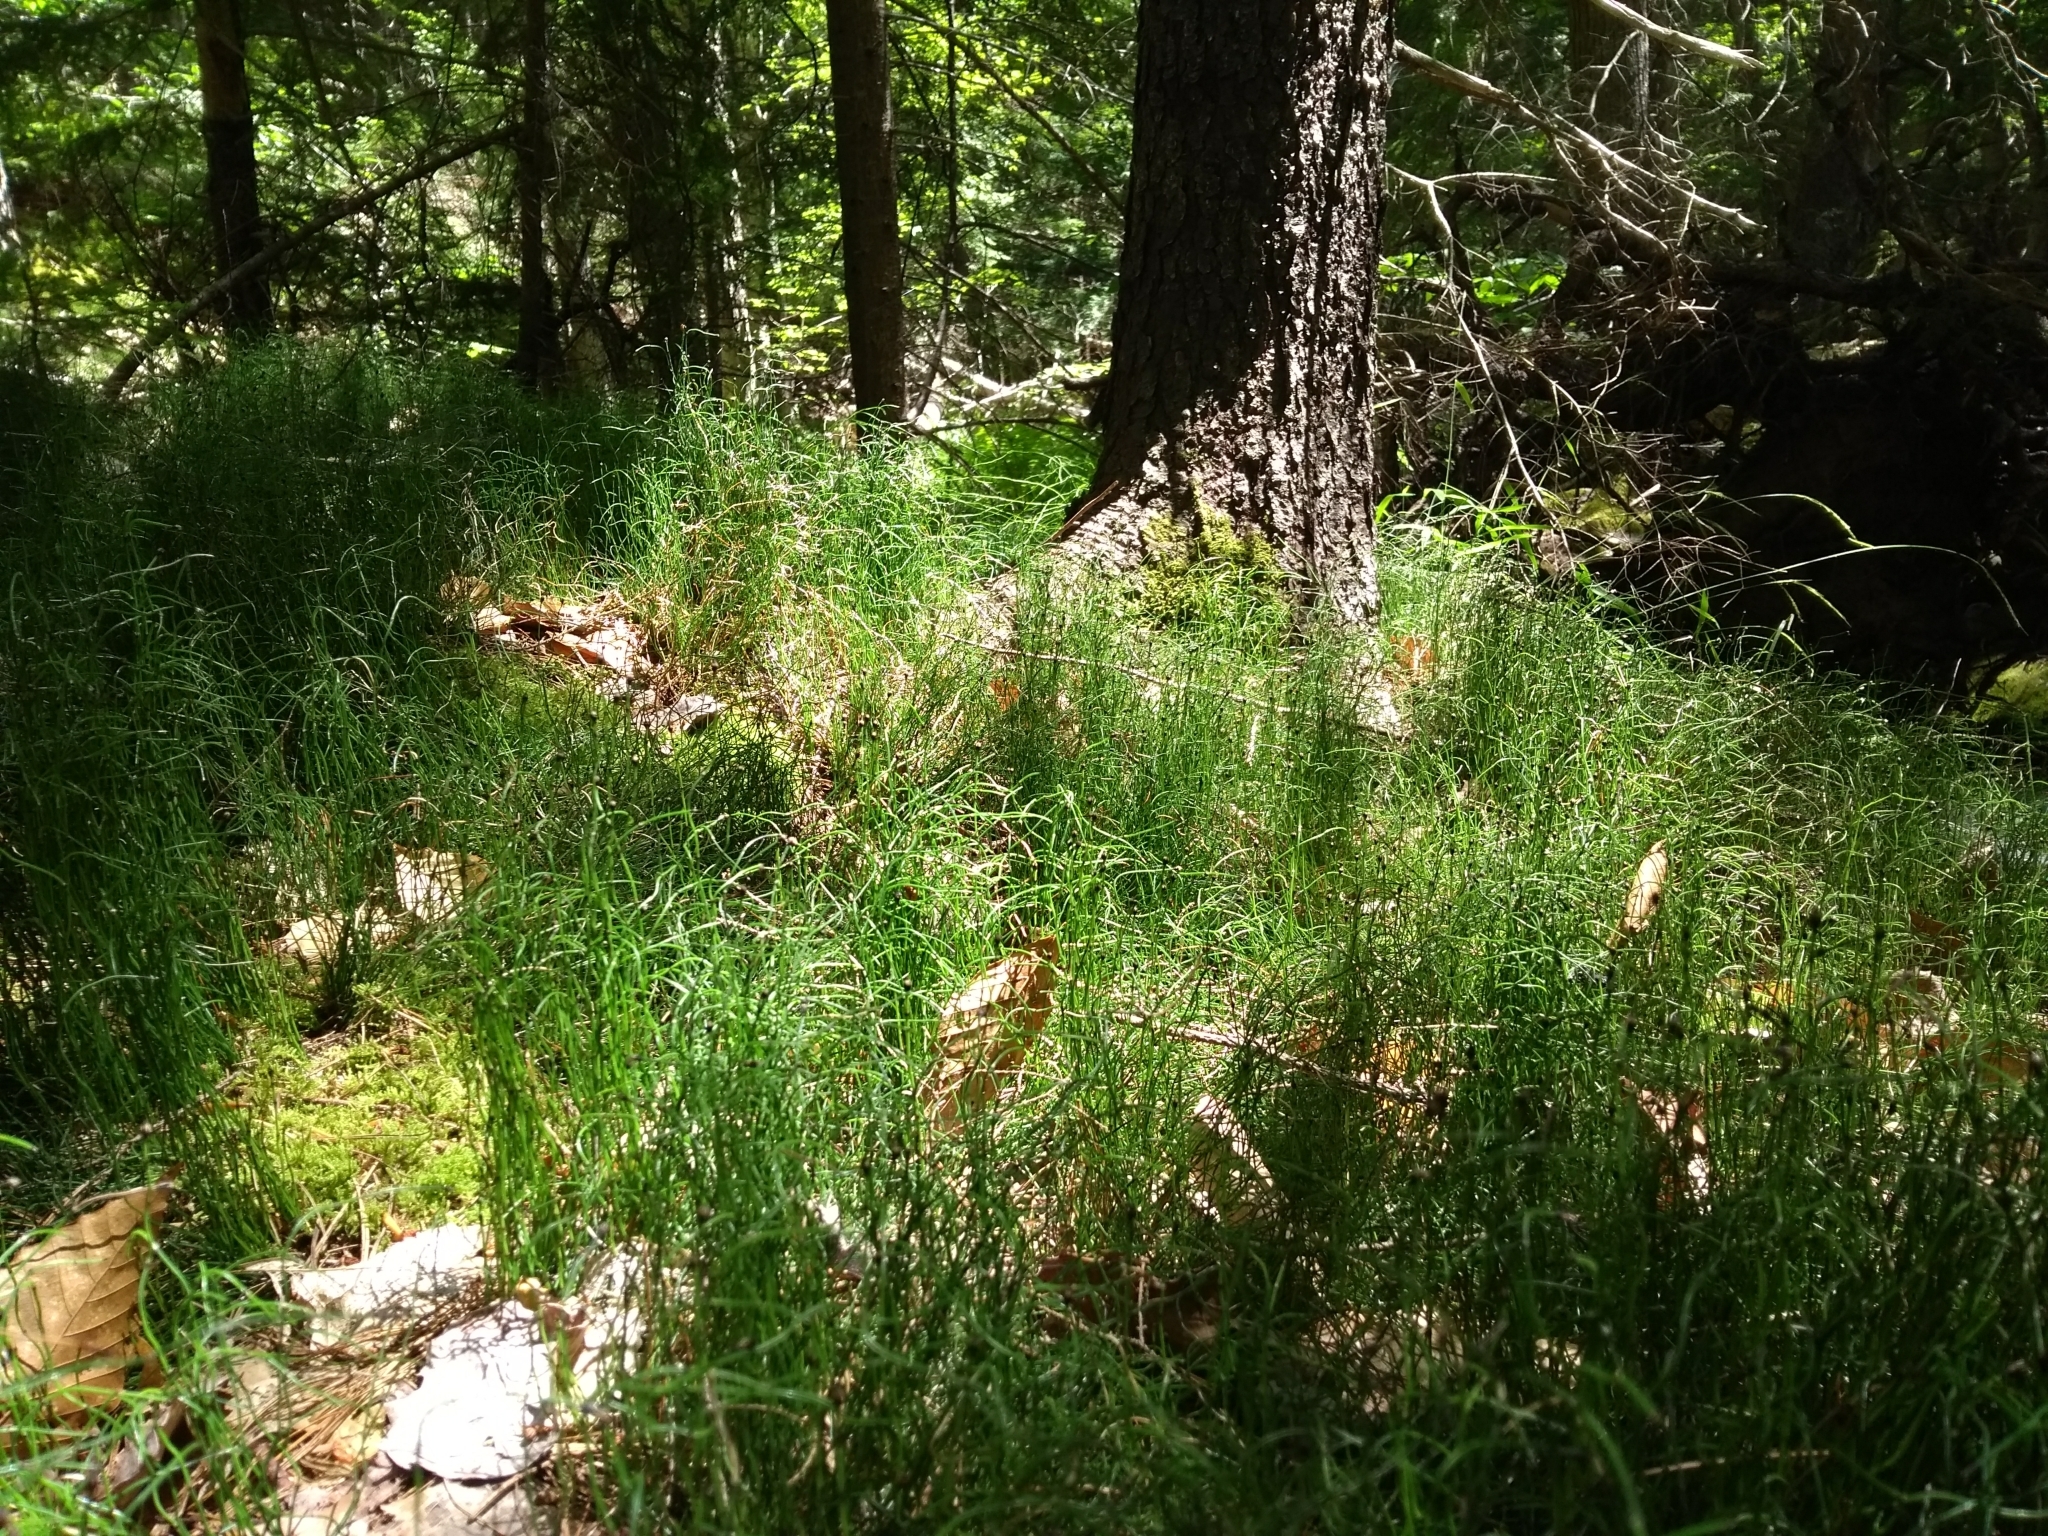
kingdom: Plantae
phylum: Tracheophyta
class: Polypodiopsida
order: Equisetales
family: Equisetaceae
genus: Equisetum
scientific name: Equisetum scirpoides
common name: Delicate horsetail
